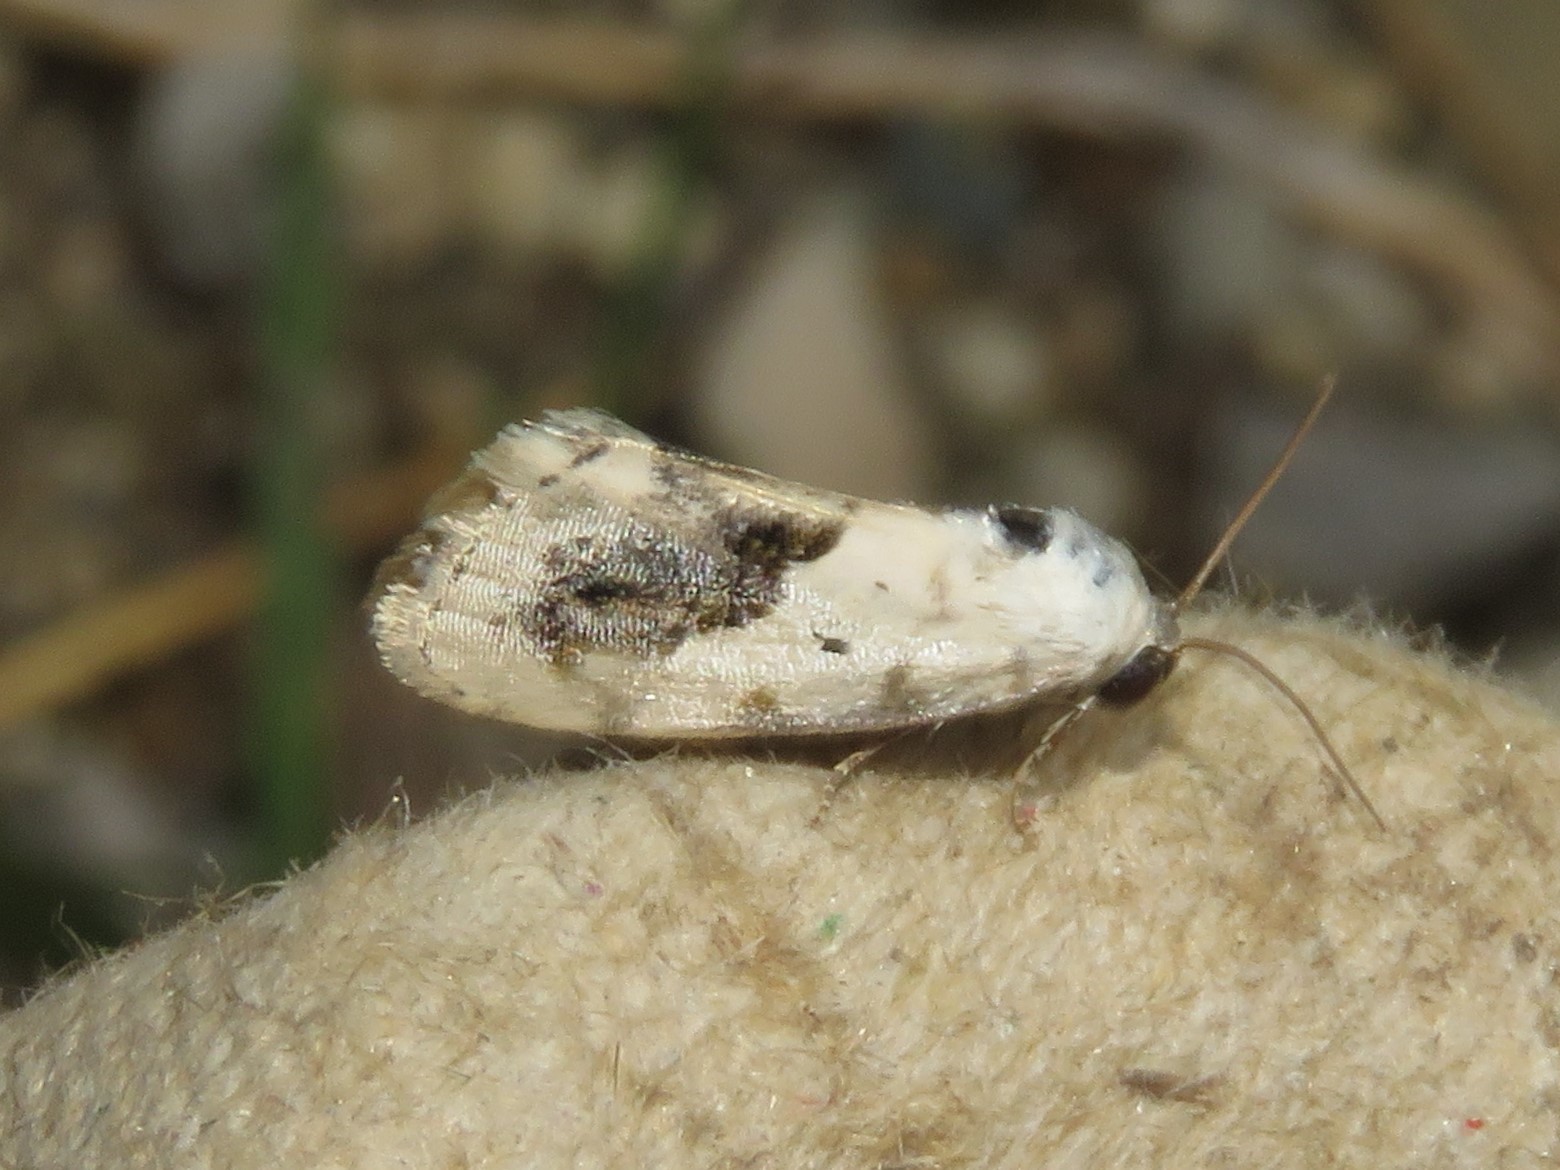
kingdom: Animalia
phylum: Arthropoda
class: Insecta
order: Lepidoptera
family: Noctuidae
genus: Acontia
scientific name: Acontia erastrioides
